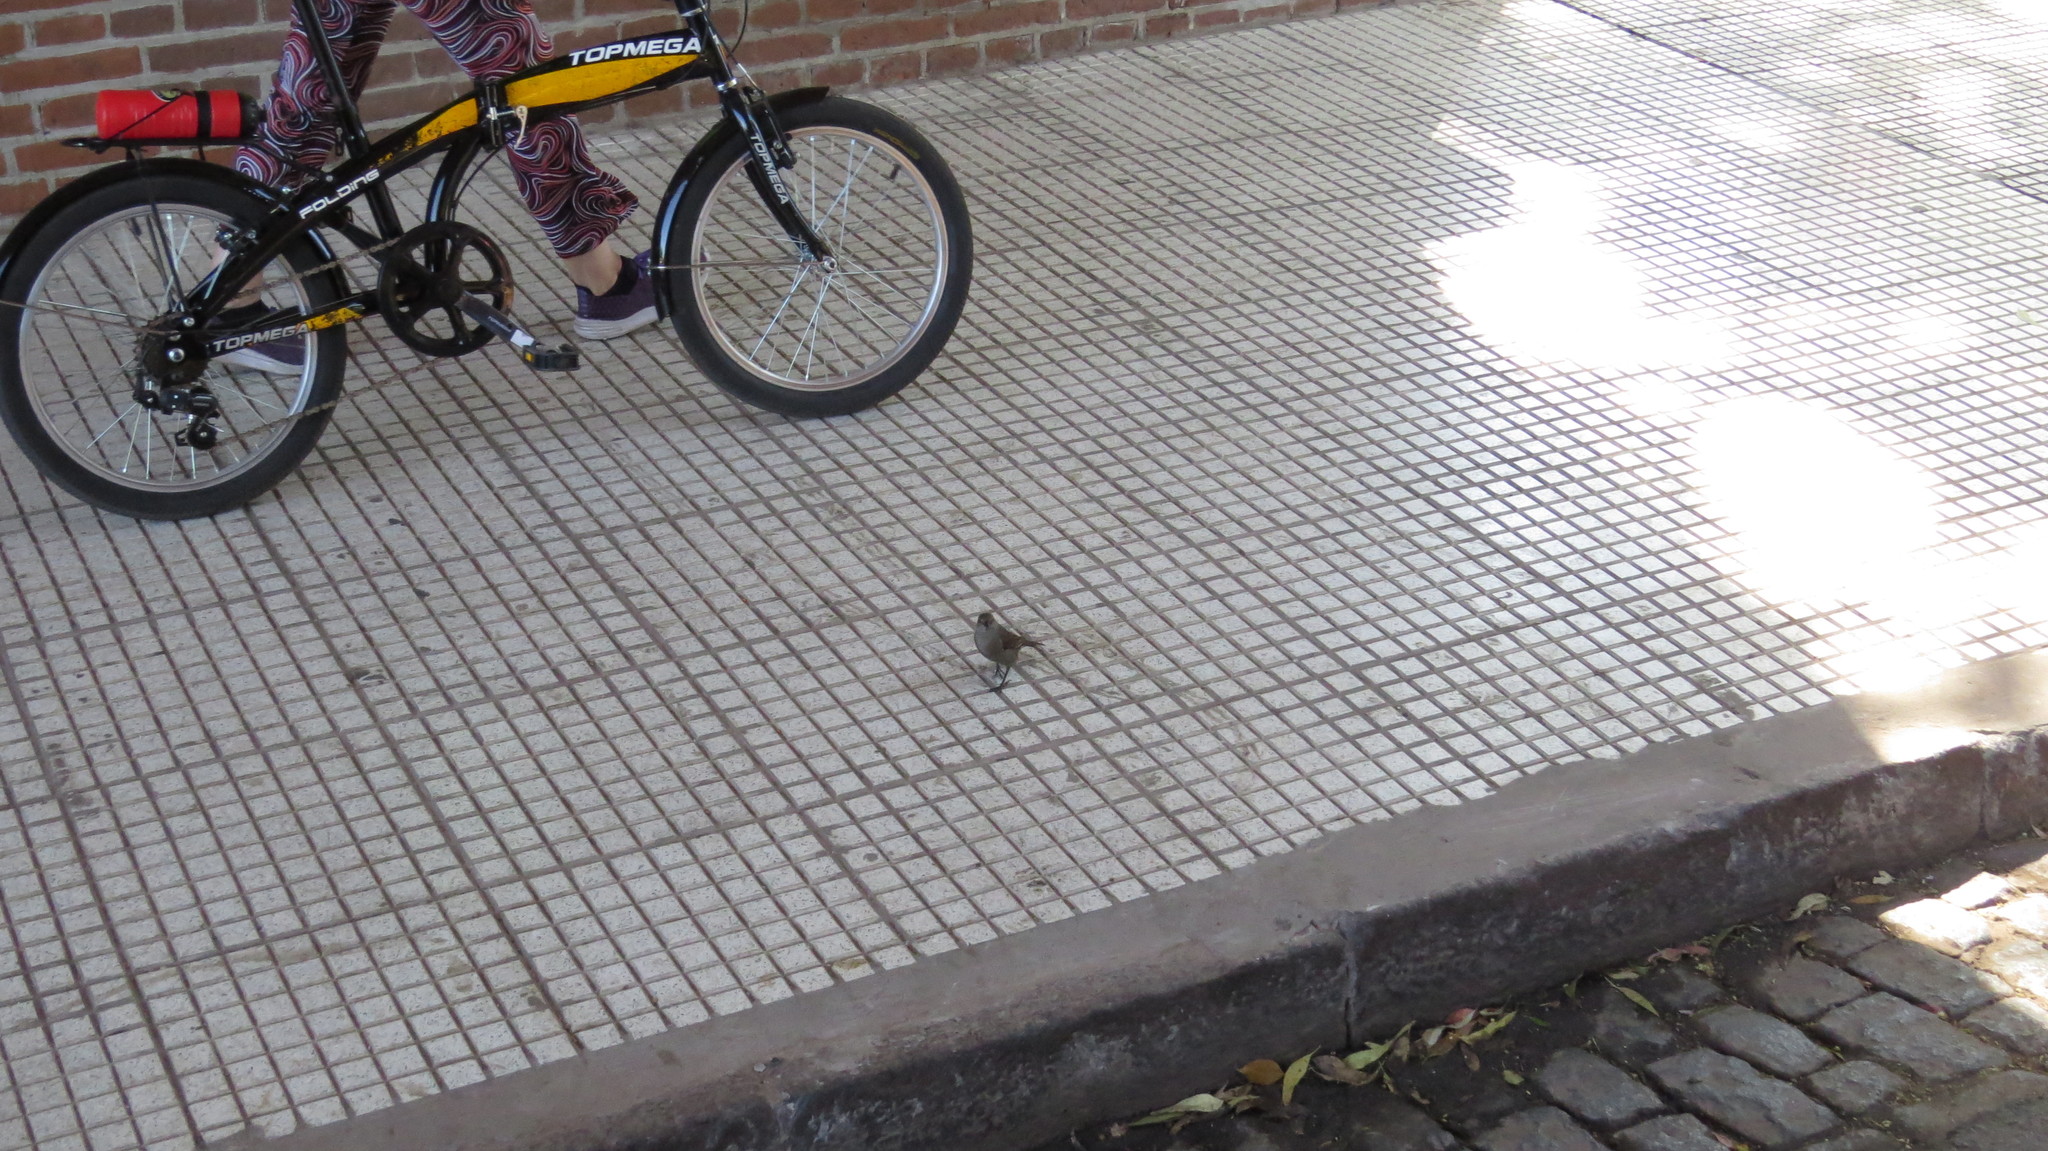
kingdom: Animalia
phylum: Chordata
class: Aves
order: Passeriformes
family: Icteridae
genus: Molothrus
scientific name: Molothrus bonariensis
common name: Shiny cowbird
